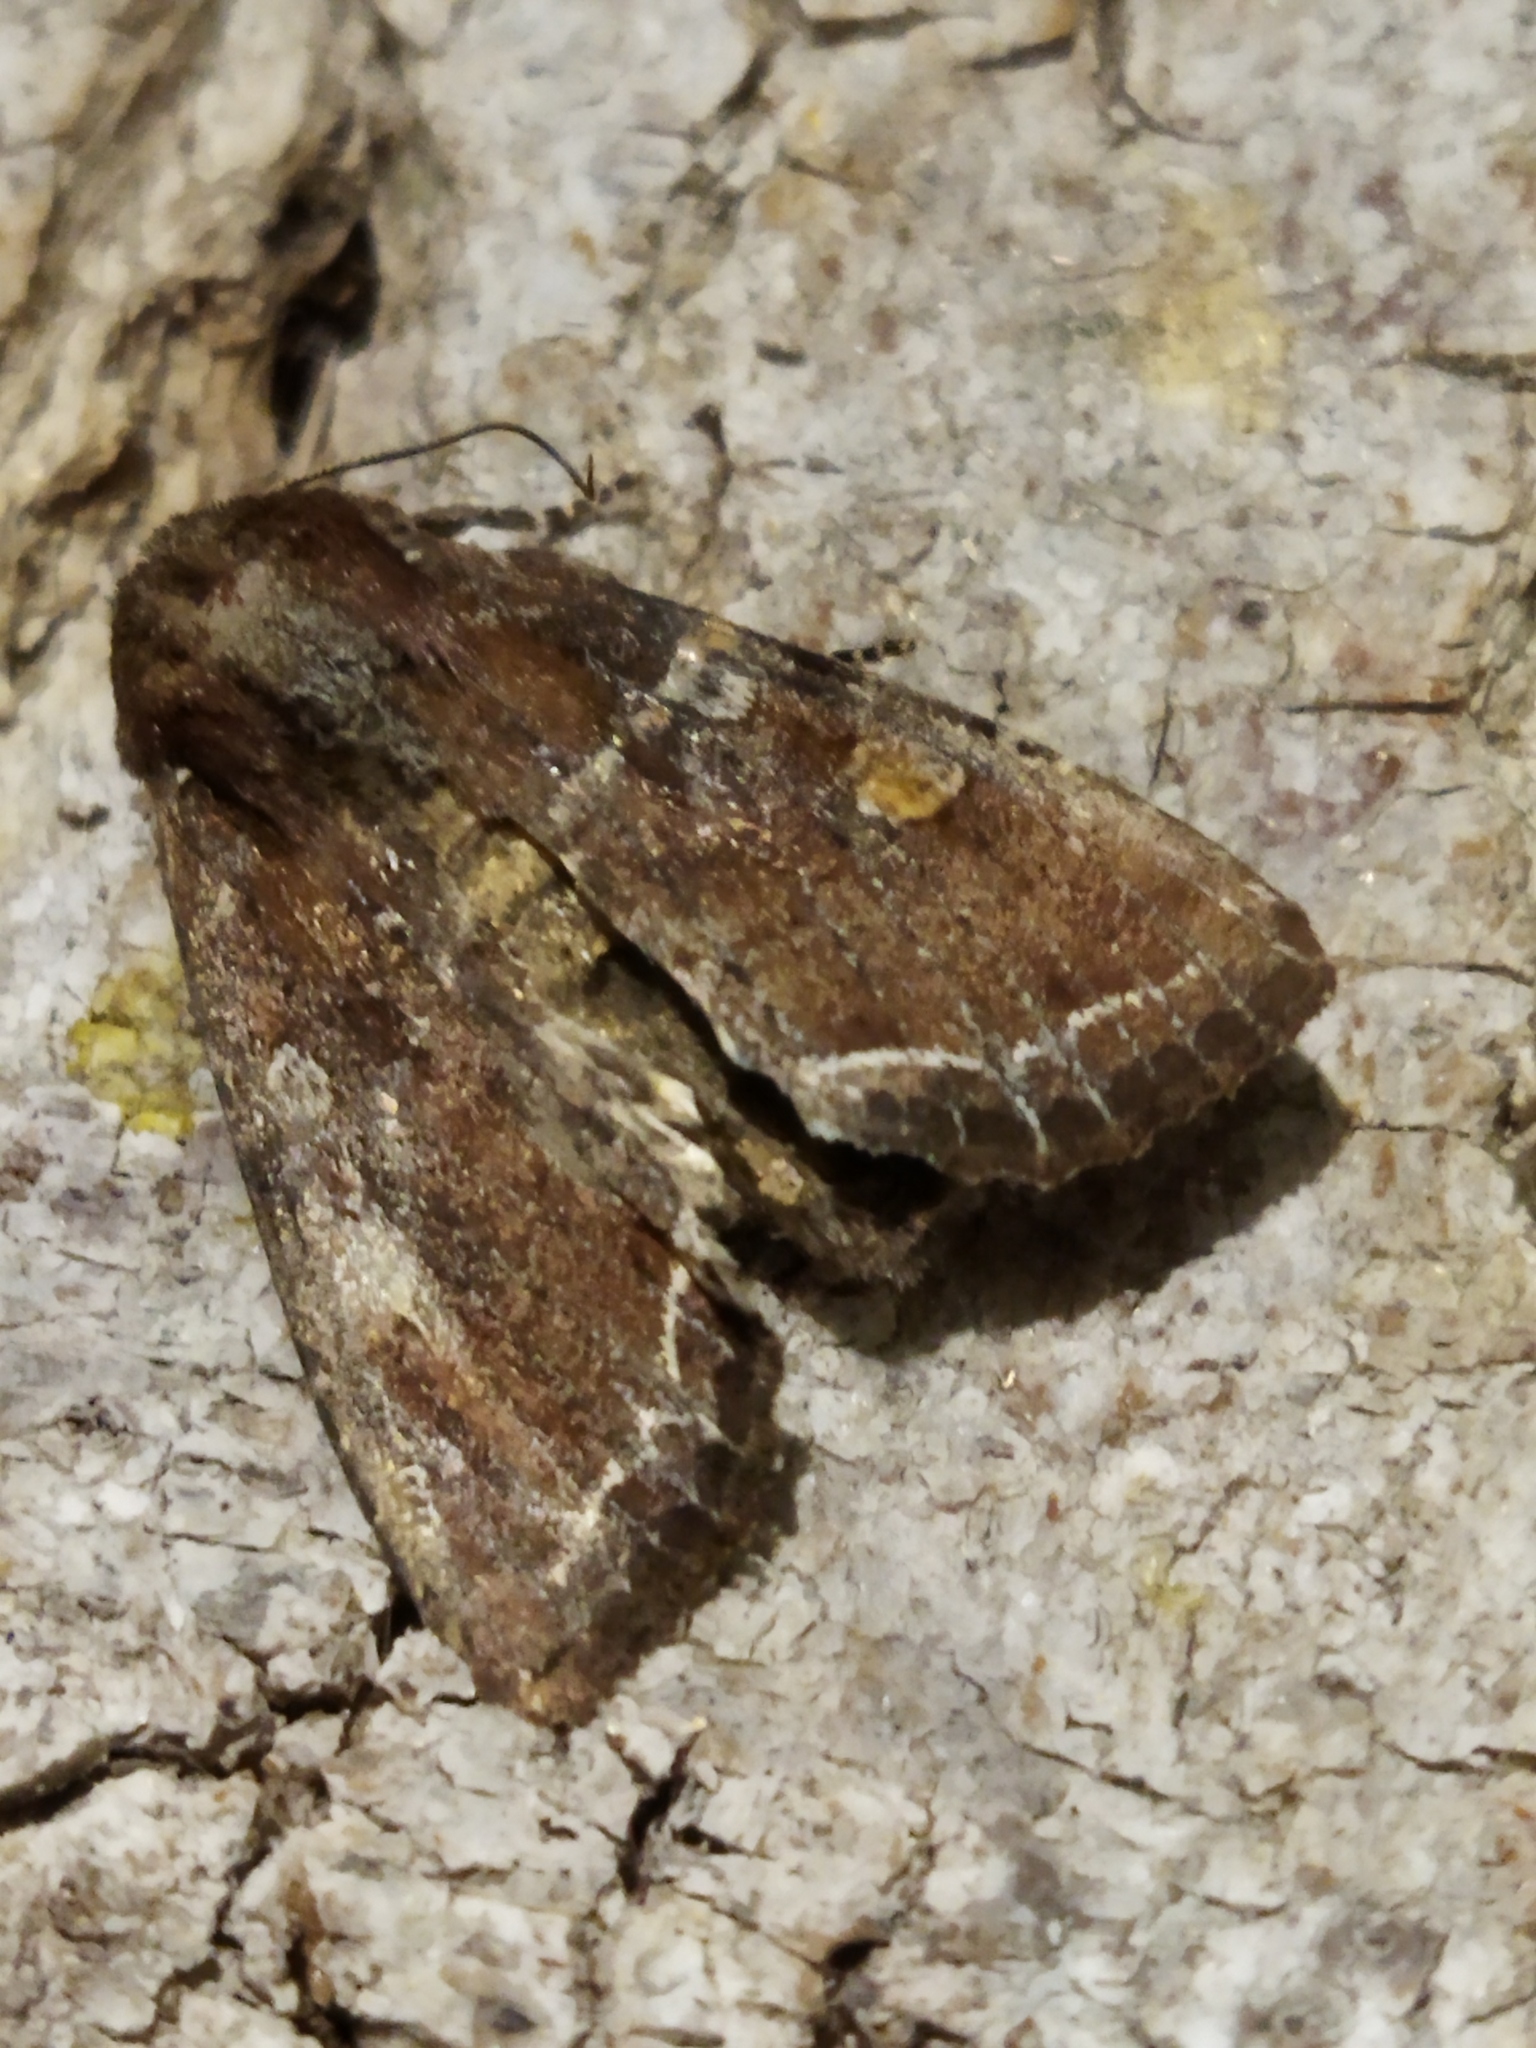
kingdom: Animalia
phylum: Arthropoda
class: Insecta
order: Lepidoptera
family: Noctuidae
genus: Lacanobia
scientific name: Lacanobia oleracea
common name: Bright-line brown-eye
